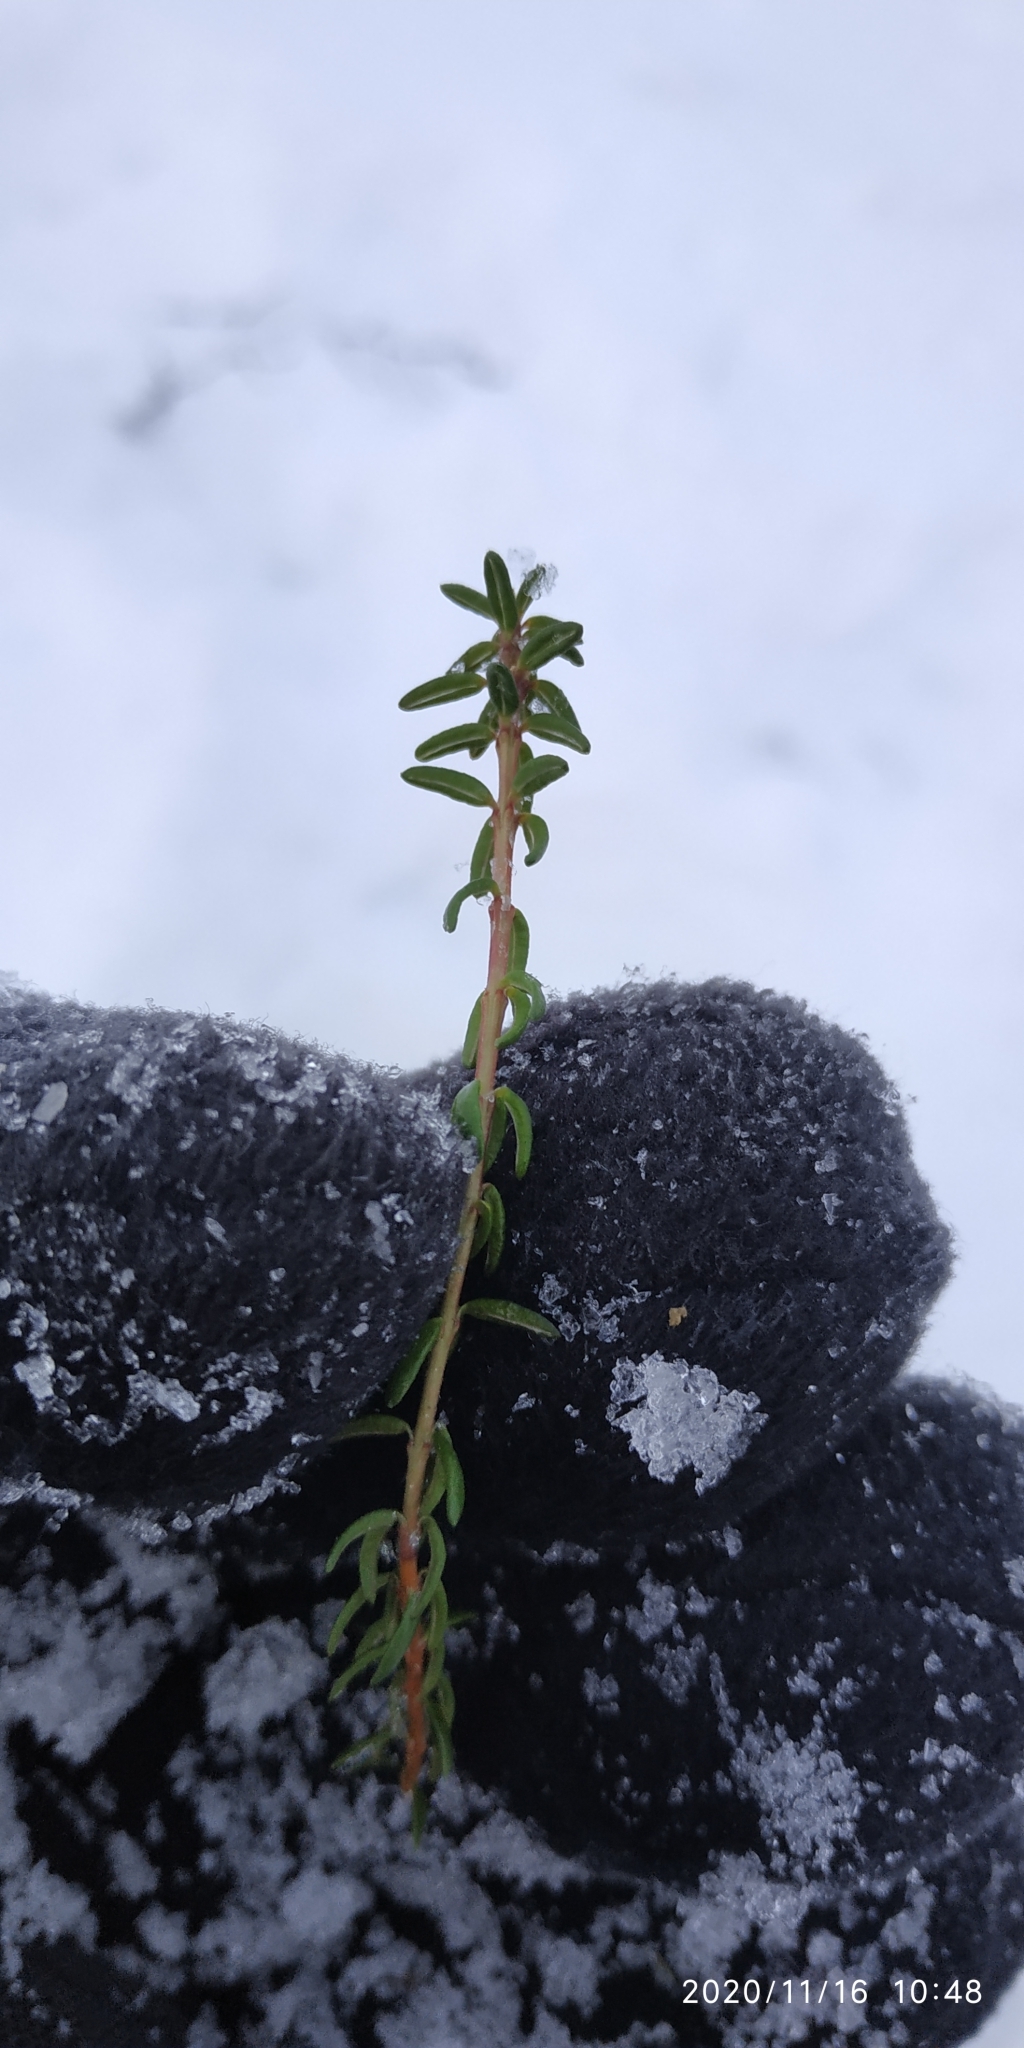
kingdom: Plantae
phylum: Tracheophyta
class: Magnoliopsida
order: Ericales
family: Ericaceae
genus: Empetrum
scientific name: Empetrum nigrum
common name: Black crowberry
